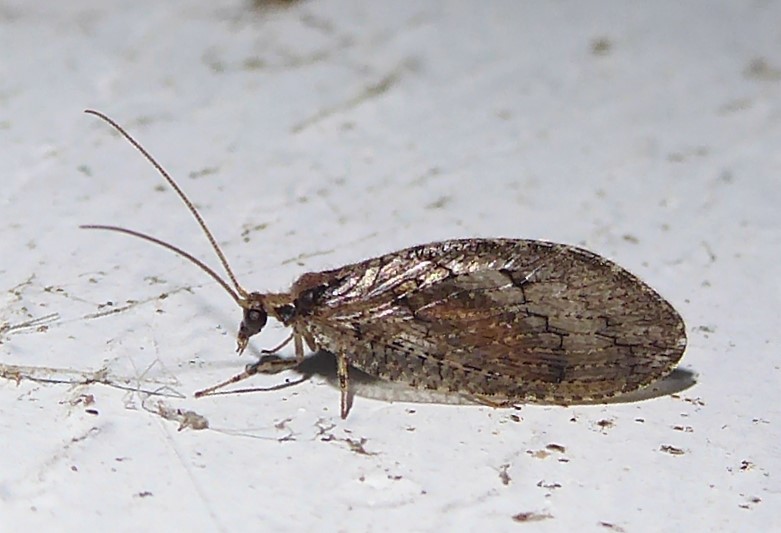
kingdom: Animalia
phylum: Arthropoda
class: Insecta
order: Neuroptera
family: Hemerobiidae
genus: Wesmaelius
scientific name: Wesmaelius subnebulosus
